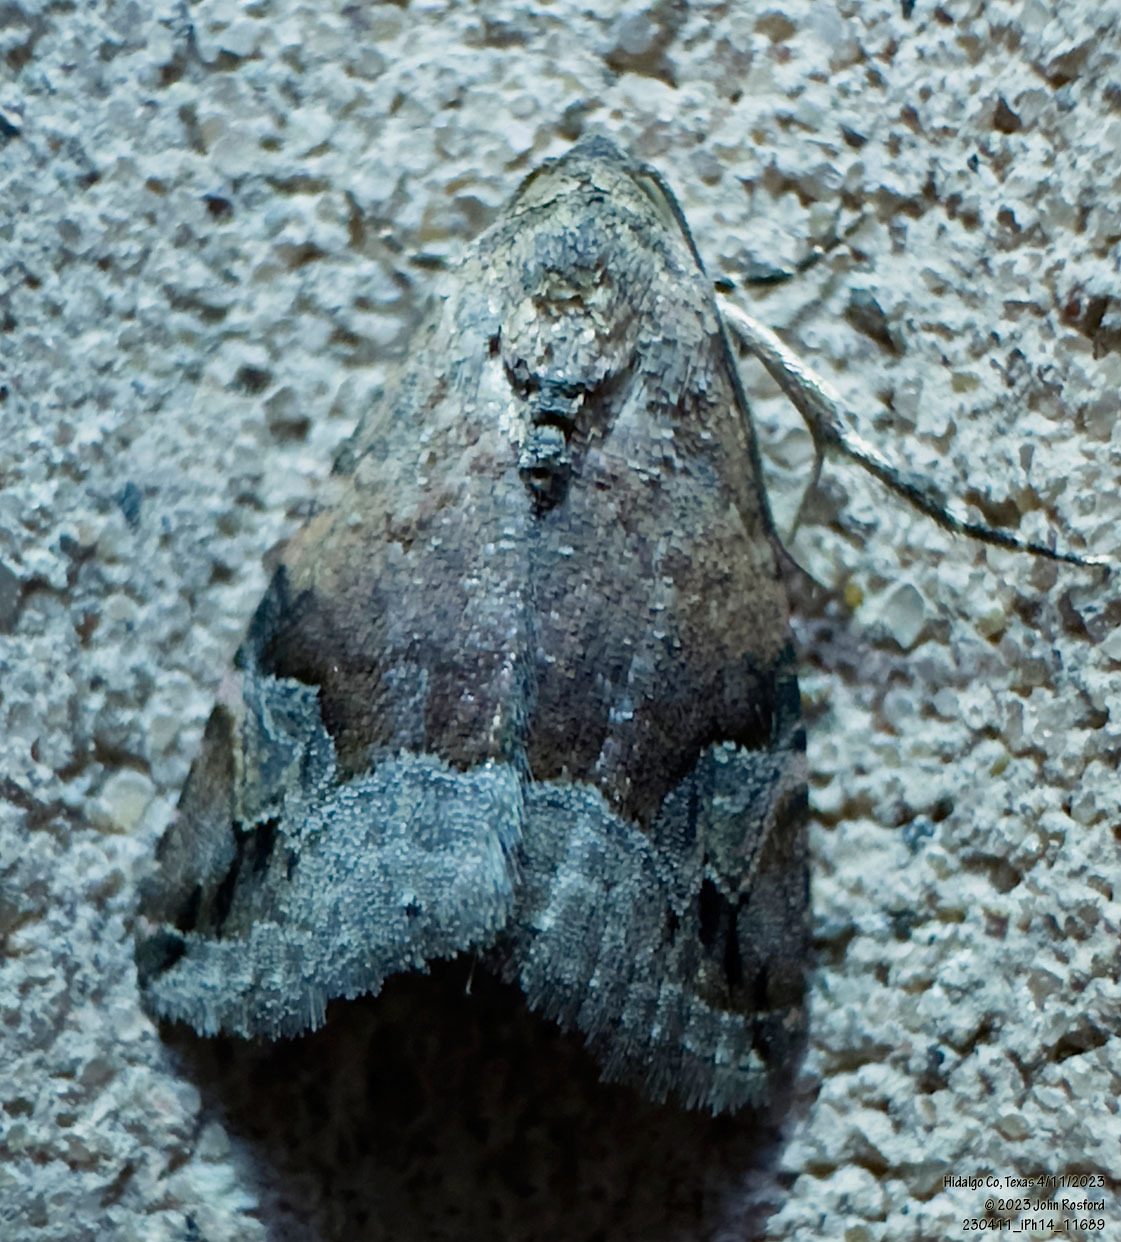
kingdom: Animalia
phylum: Arthropoda
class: Insecta
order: Lepidoptera
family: Noctuidae
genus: Ozarba
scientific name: Ozarba aeria
